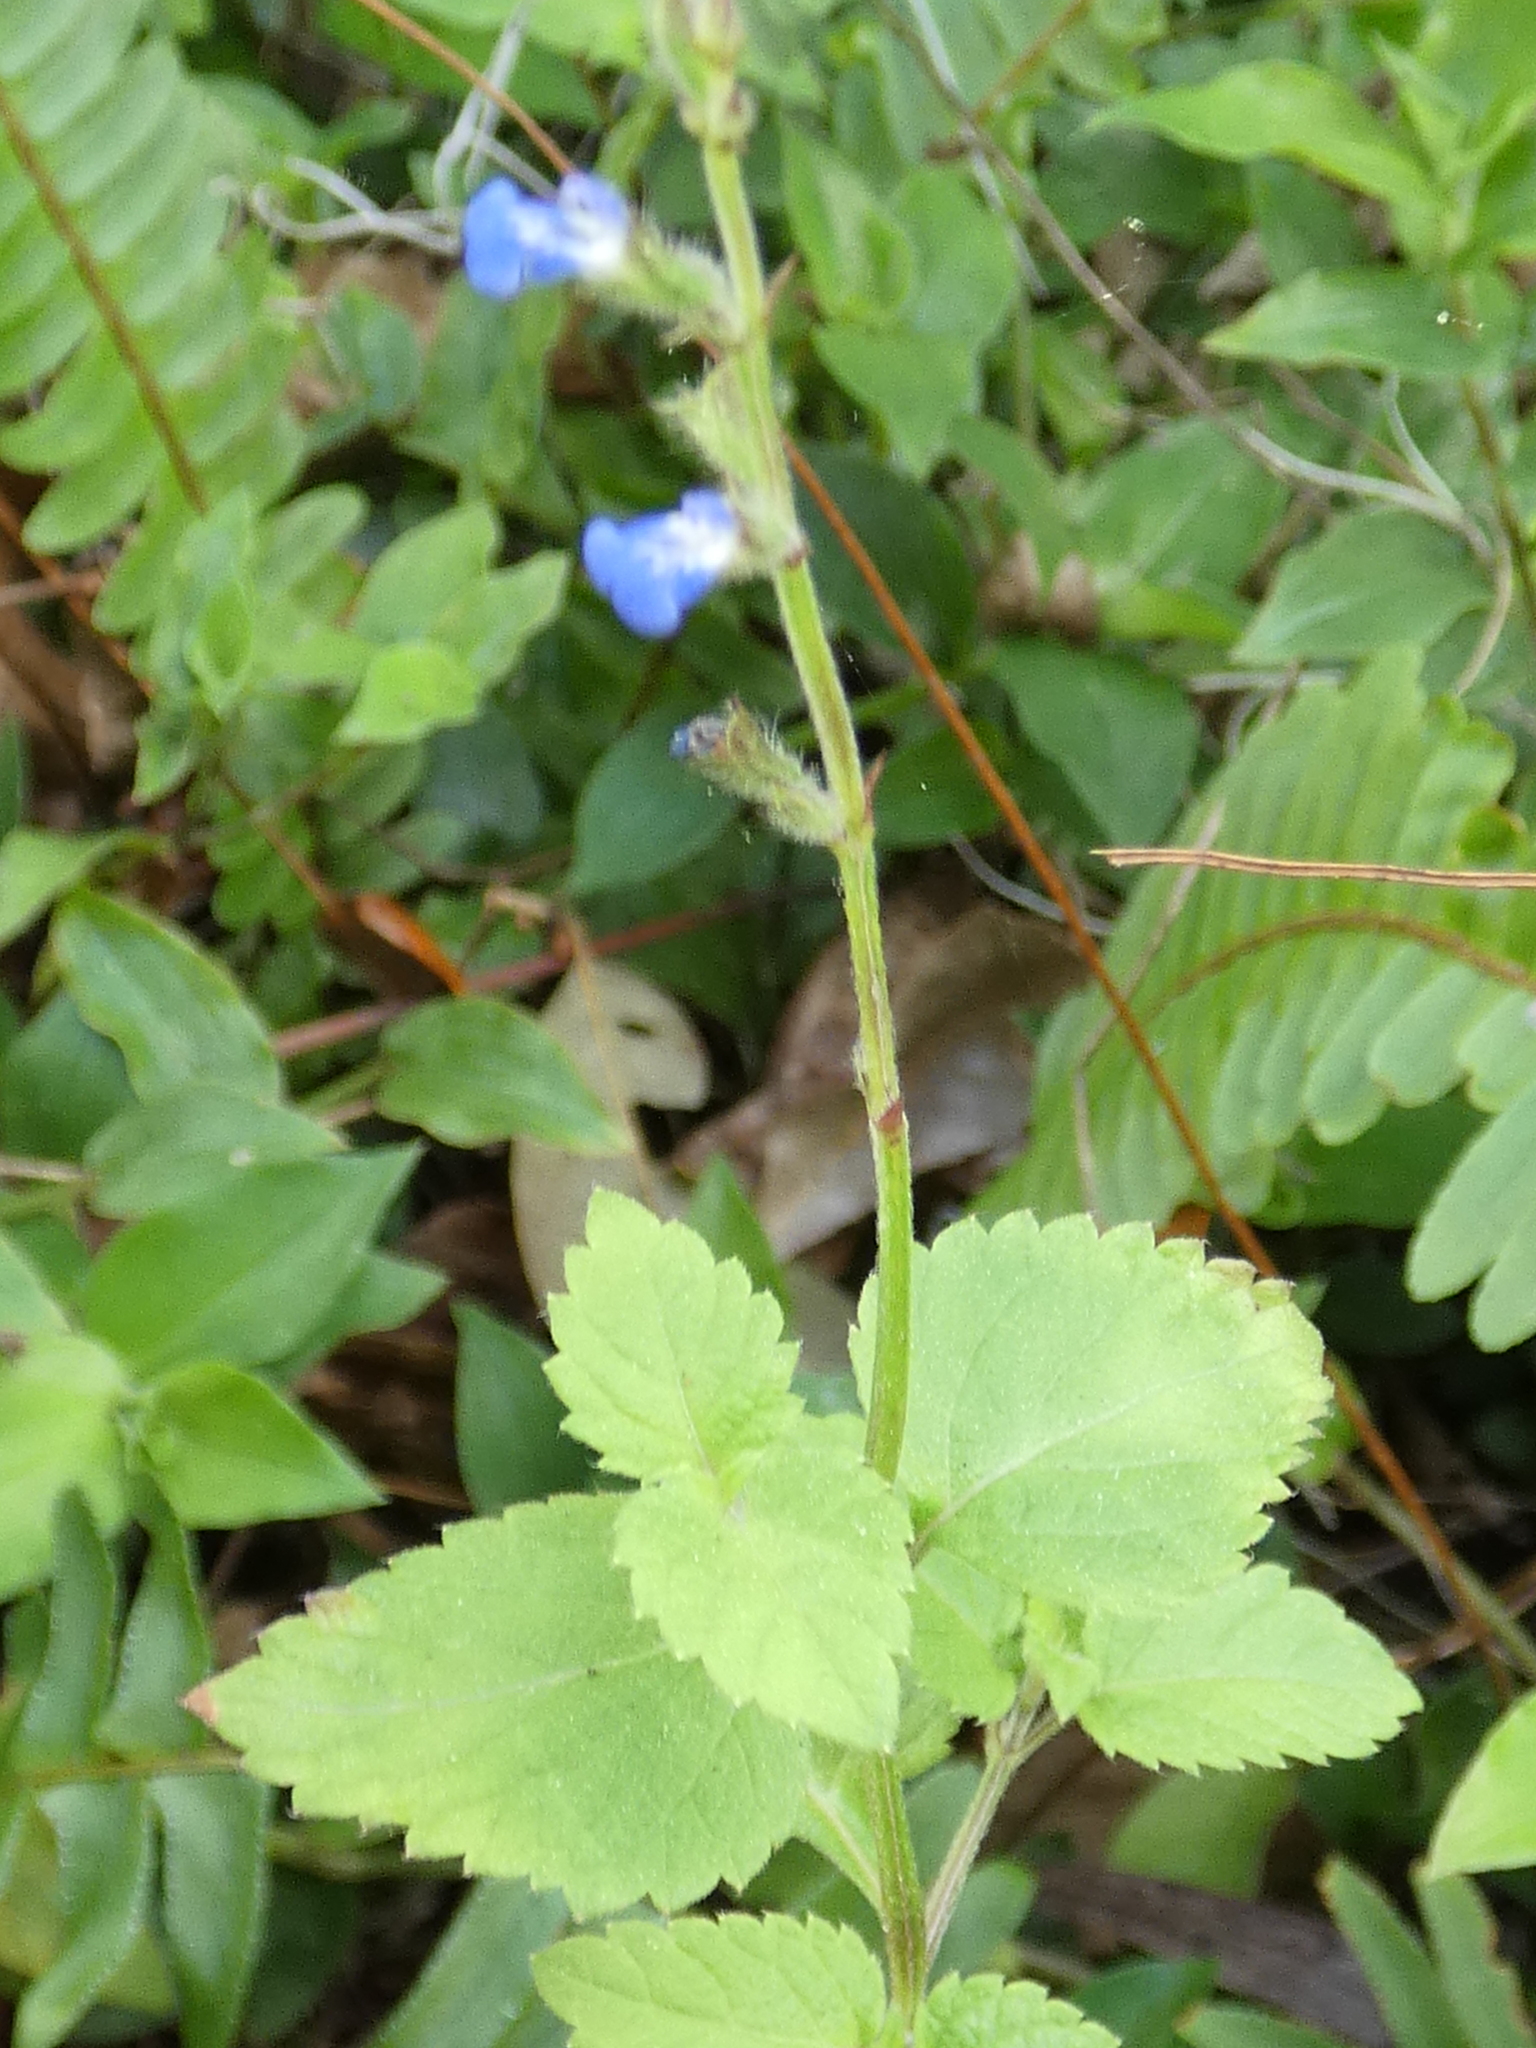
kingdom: Plantae
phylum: Tracheophyta
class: Magnoliopsida
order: Lamiales
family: Lamiaceae
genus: Salvia
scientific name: Salvia misella
